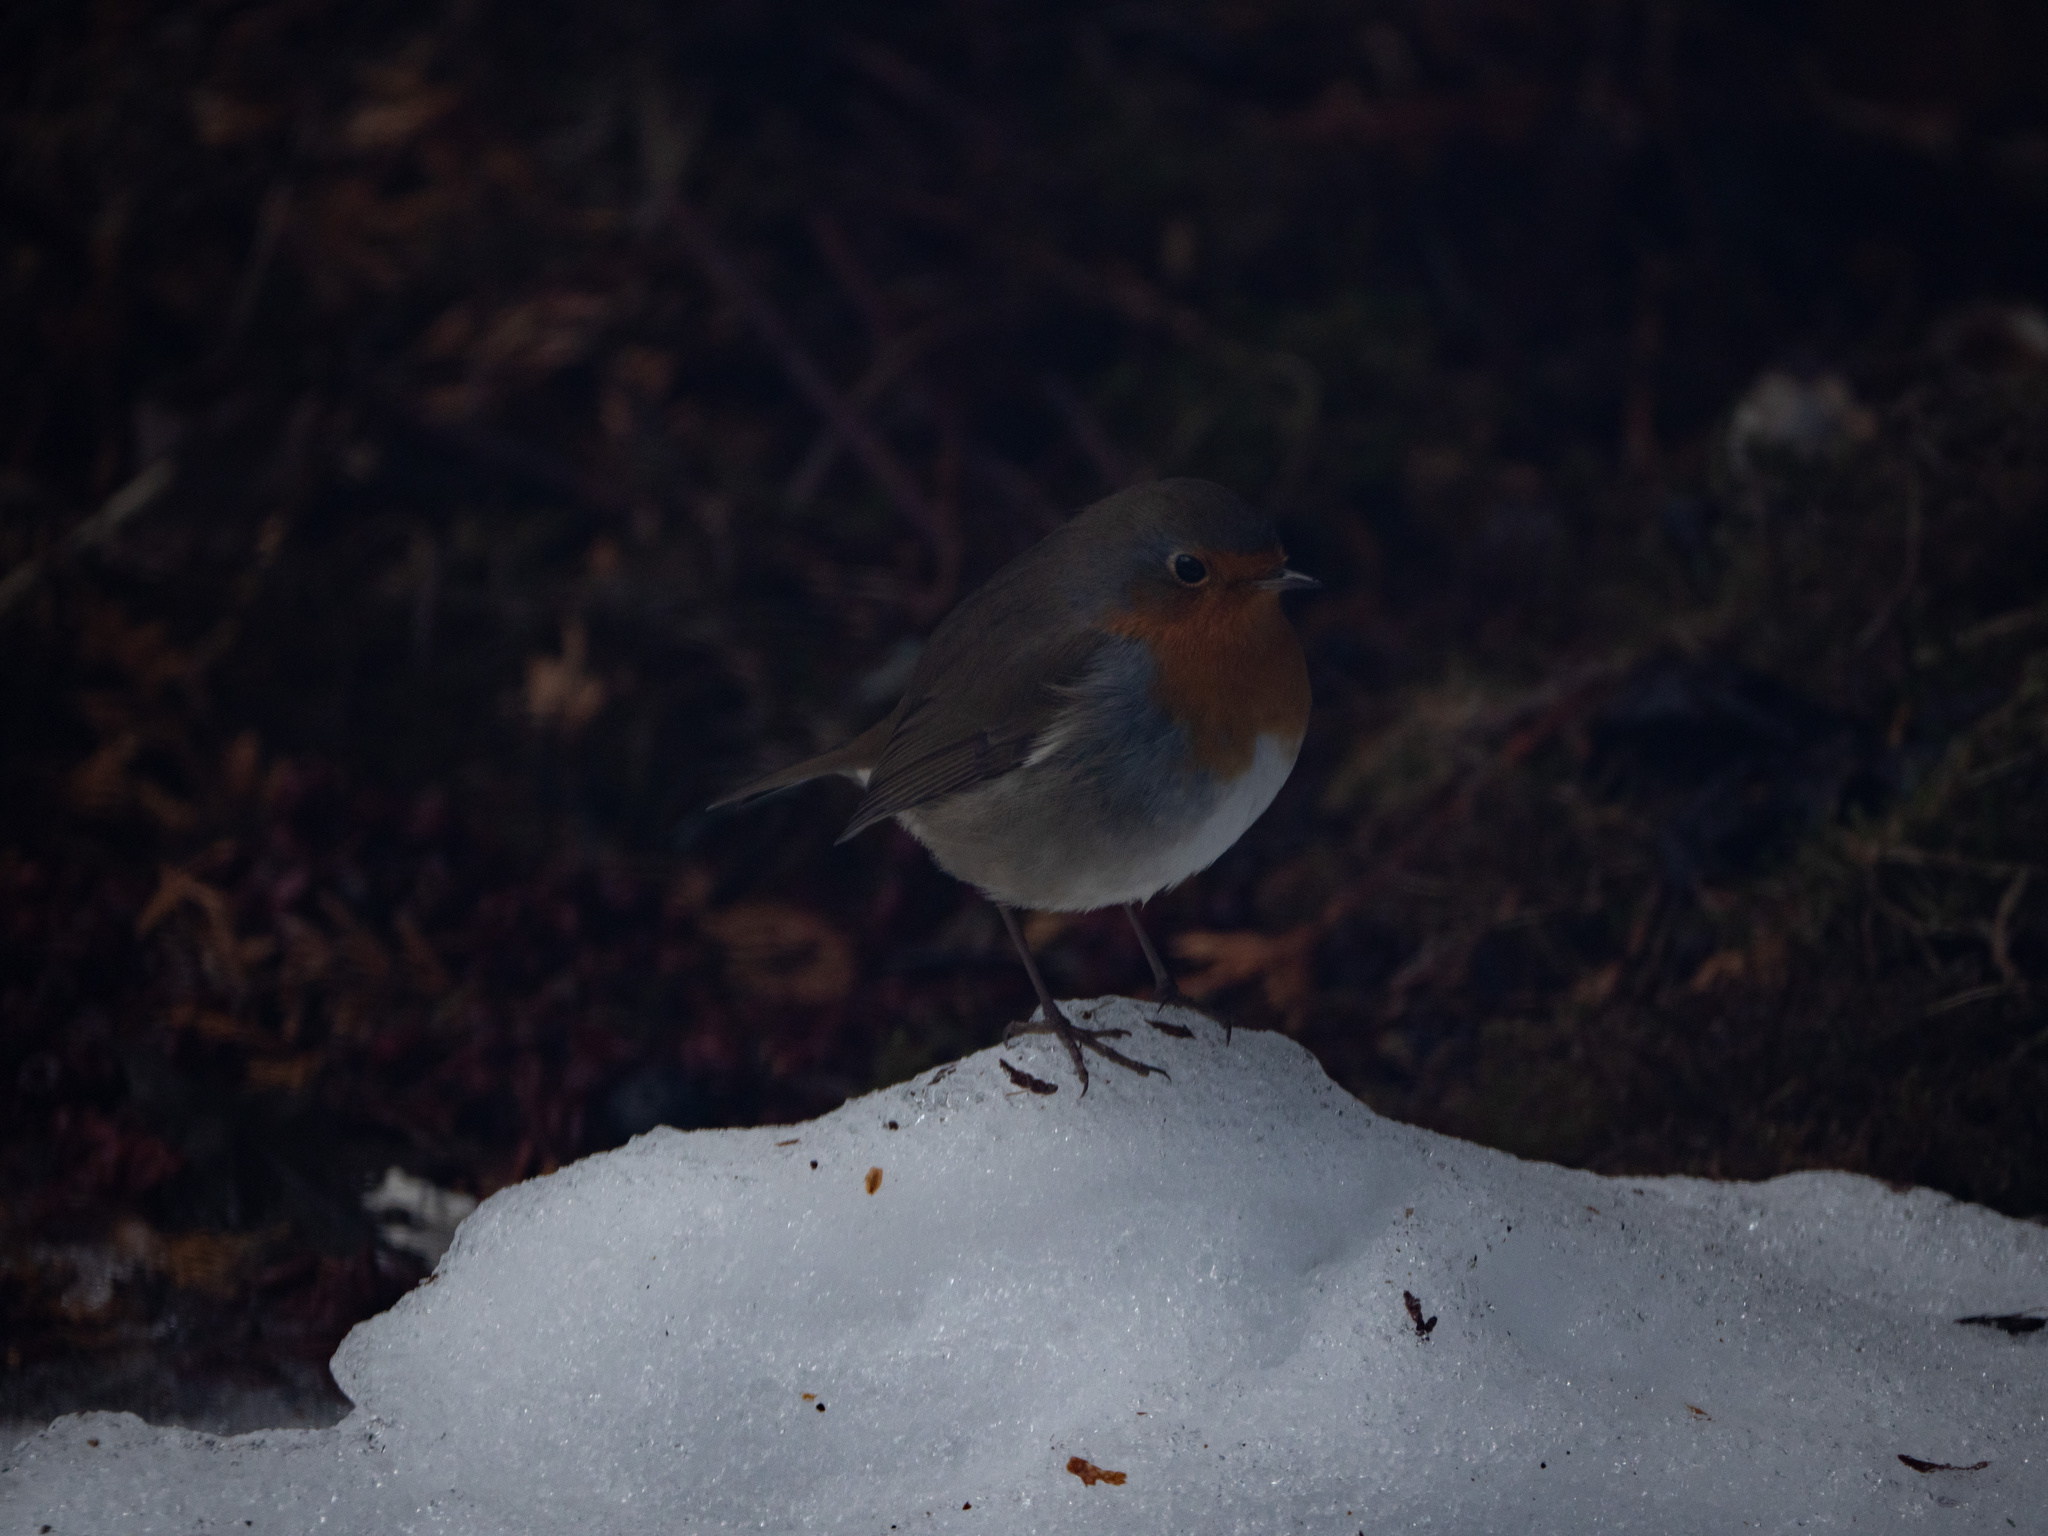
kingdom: Animalia
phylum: Chordata
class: Aves
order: Passeriformes
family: Muscicapidae
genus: Erithacus
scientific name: Erithacus rubecula
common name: European robin
